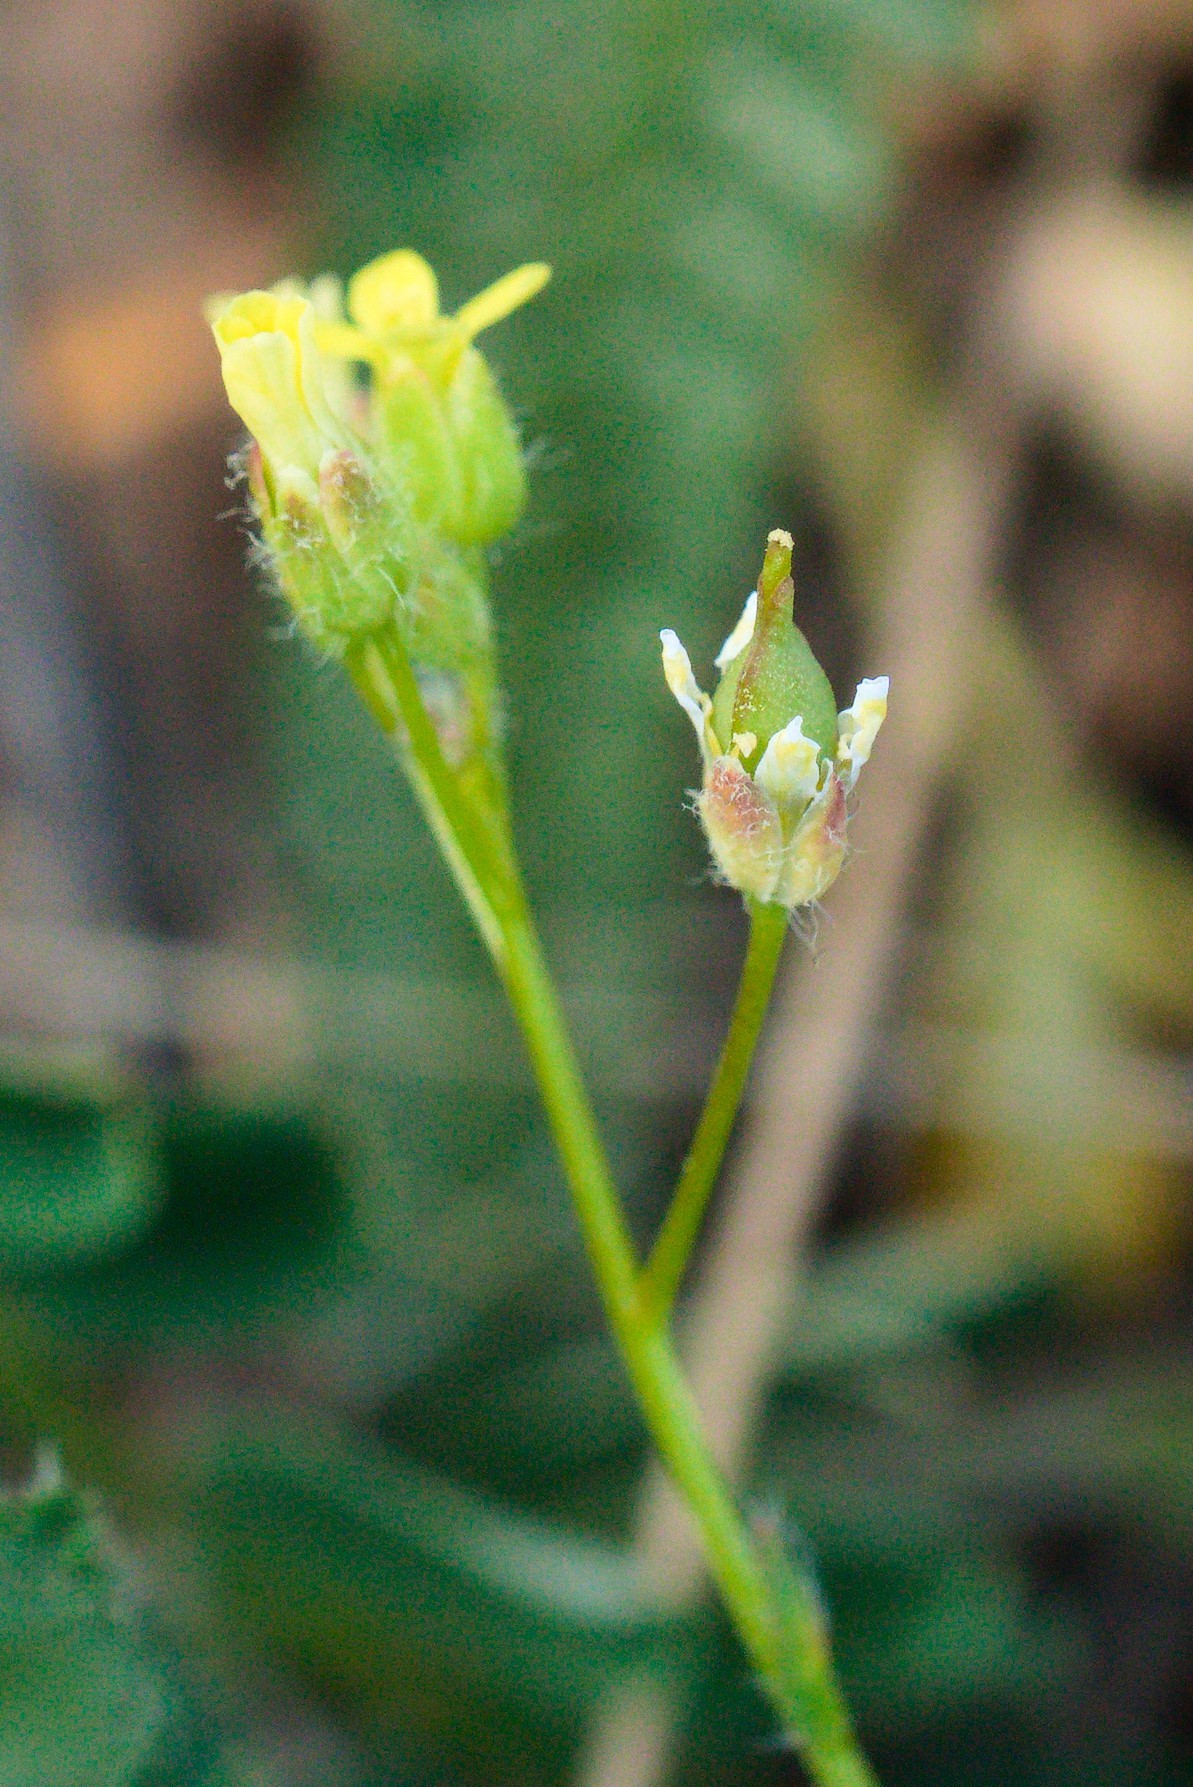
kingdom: Plantae
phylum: Tracheophyta
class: Magnoliopsida
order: Brassicales
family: Brassicaceae
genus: Camelina
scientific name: Camelina microcarpa
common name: Lesser gold-of-pleasure
